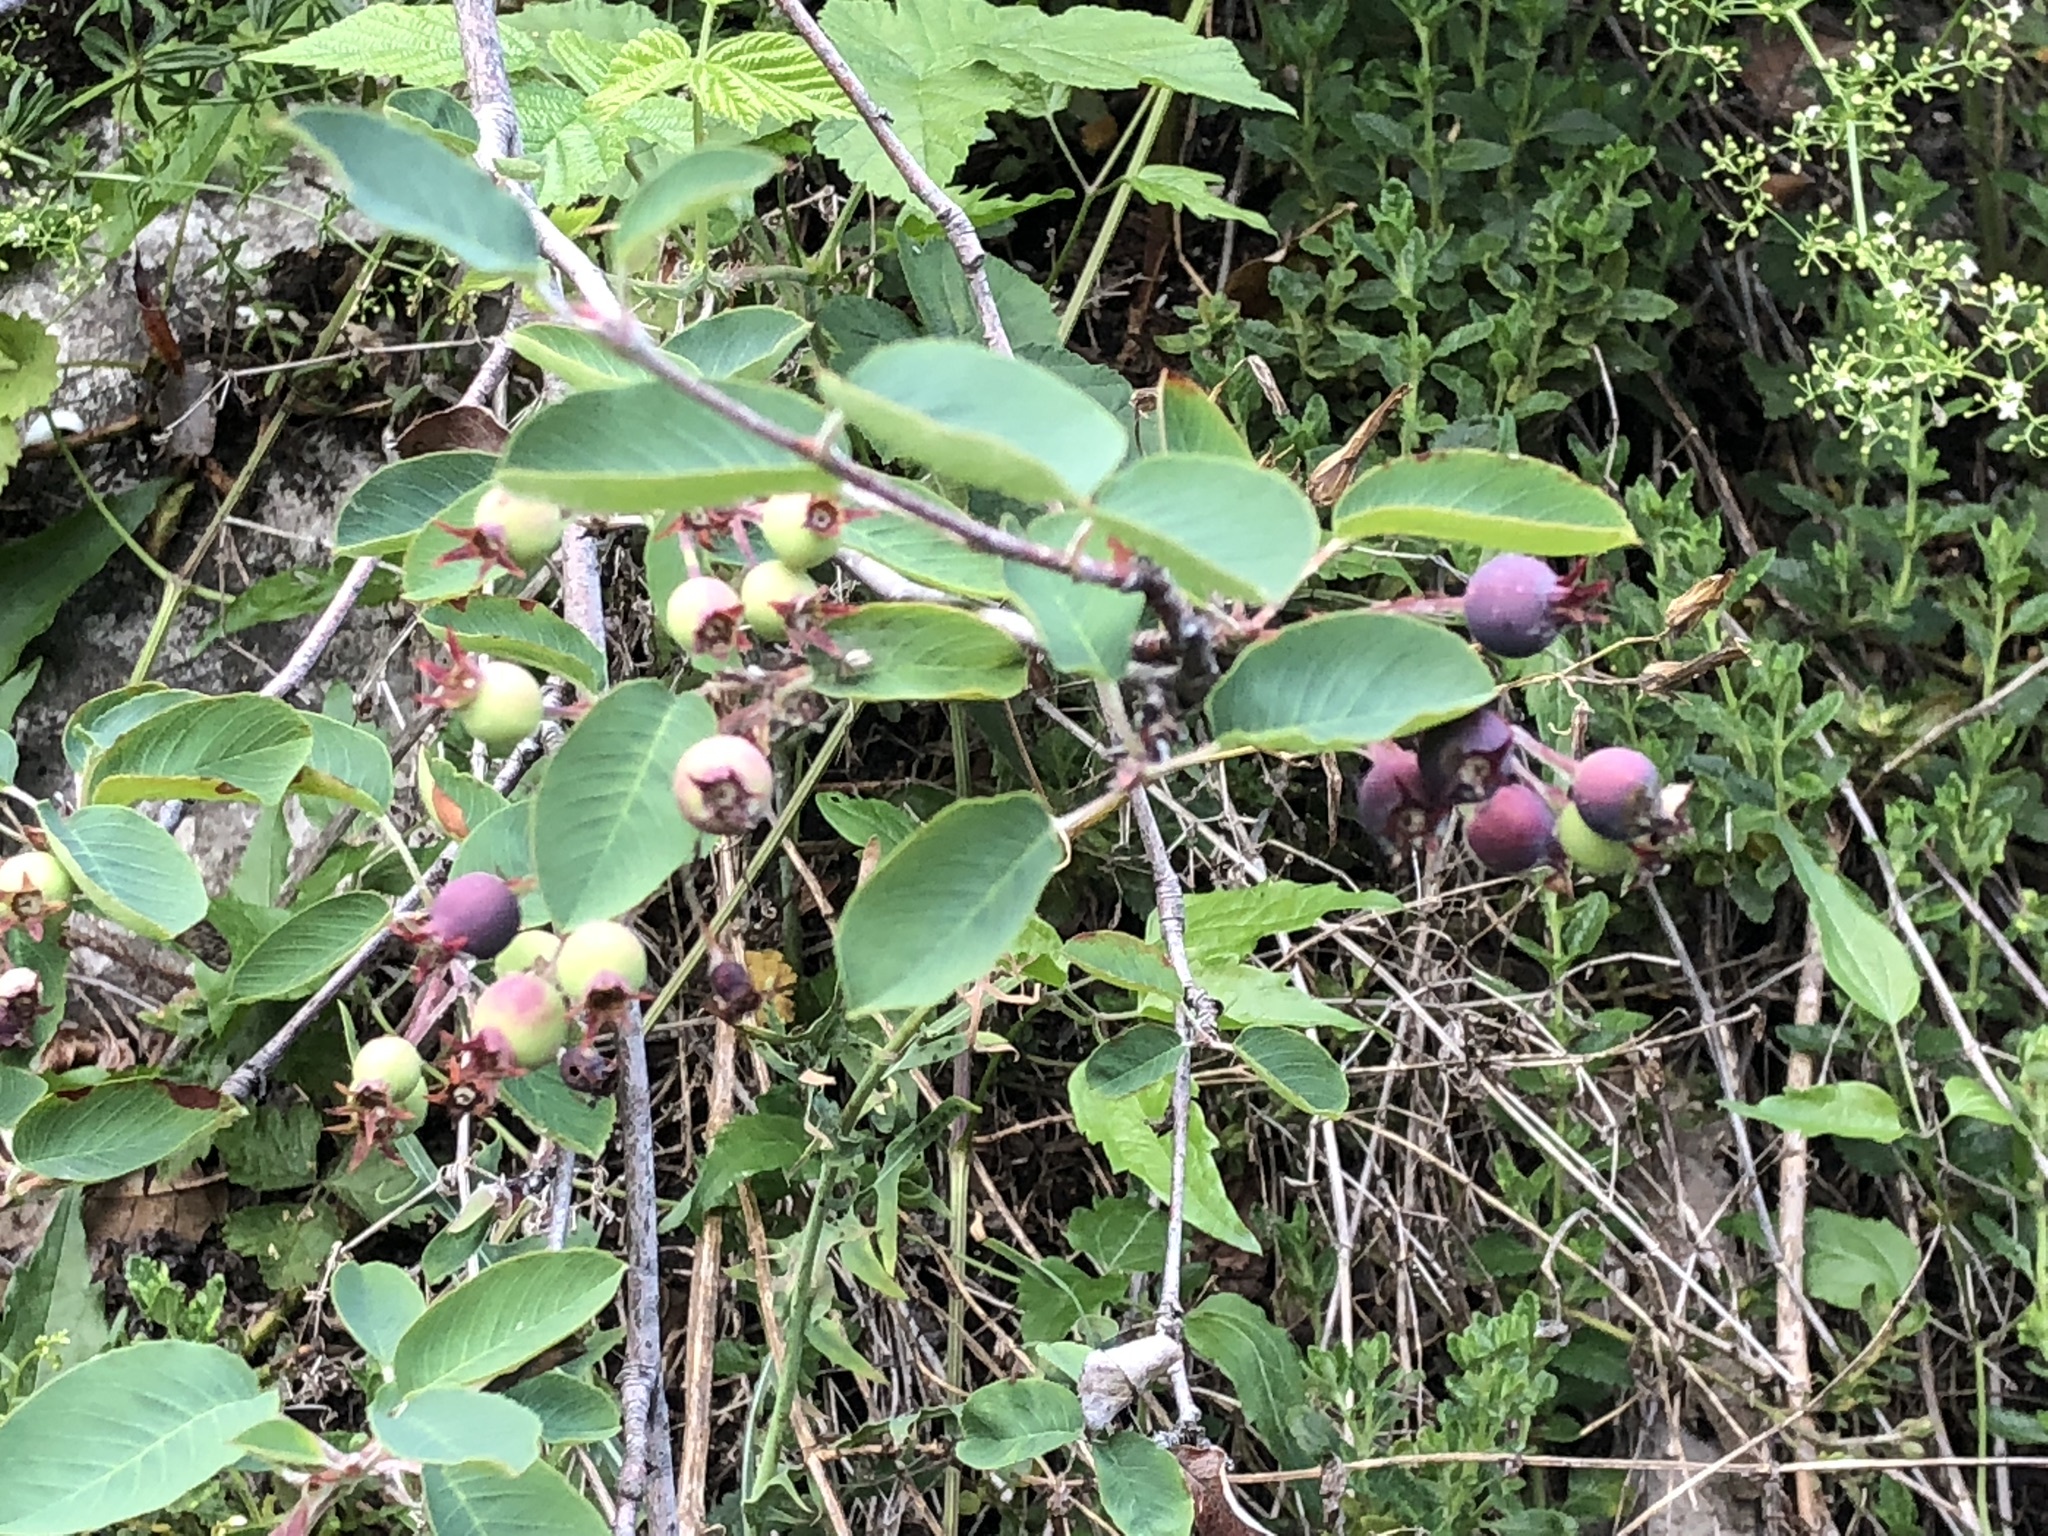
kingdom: Plantae
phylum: Tracheophyta
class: Magnoliopsida
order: Rosales
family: Rosaceae
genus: Amelanchier
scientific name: Amelanchier ovalis
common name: Serviceberry
